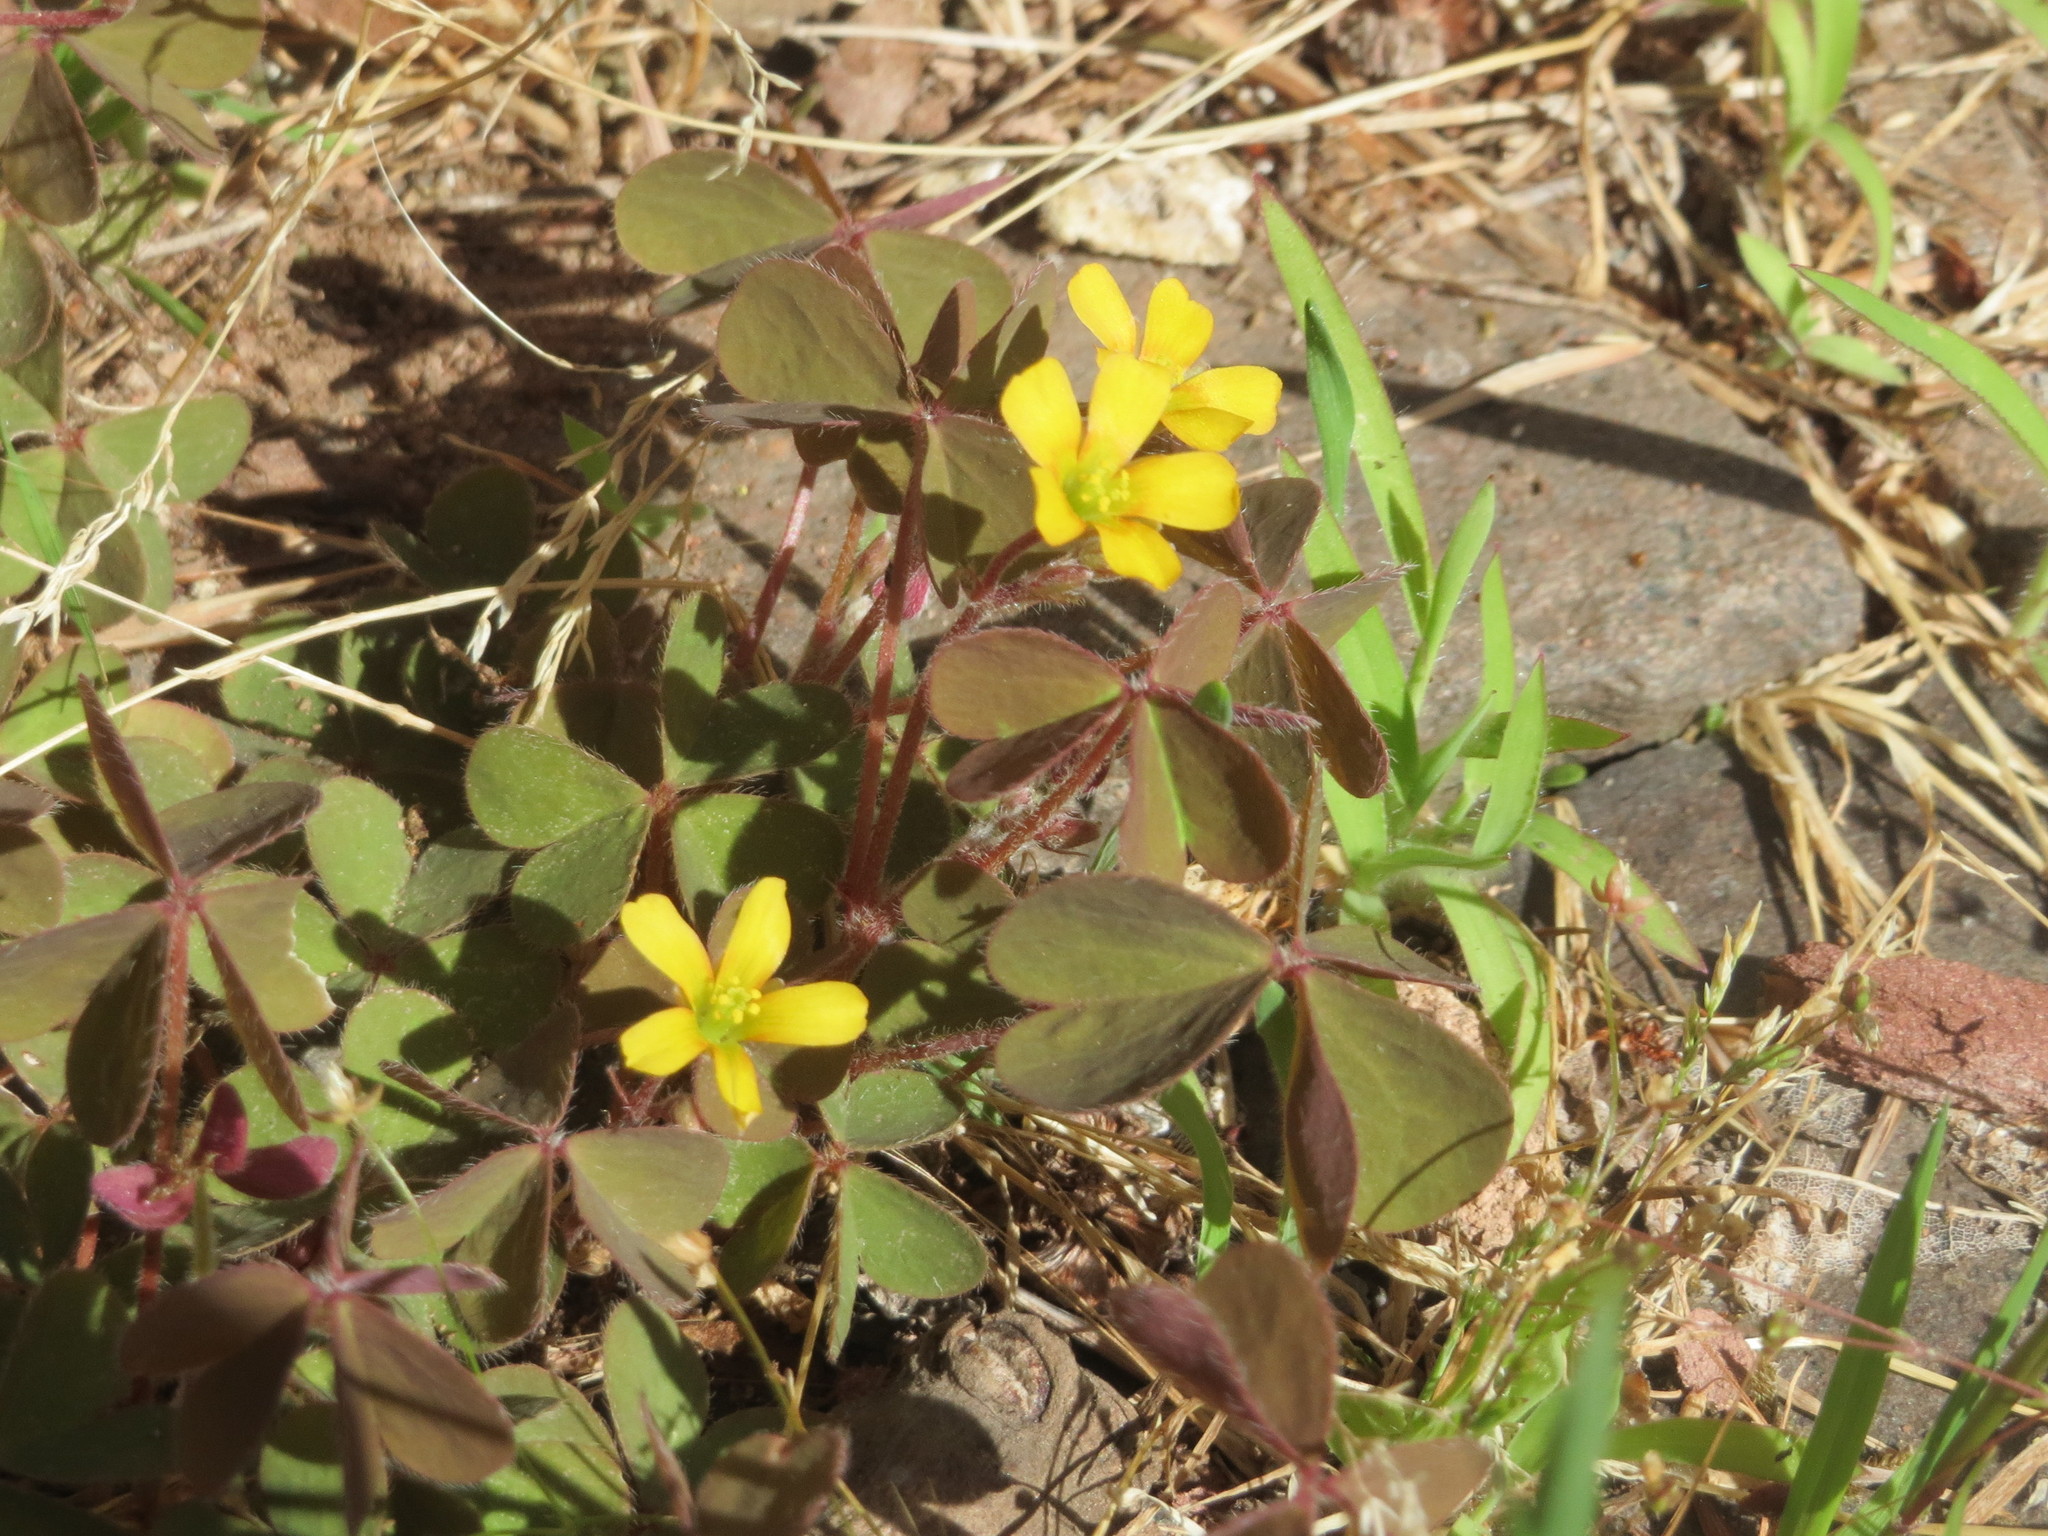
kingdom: Plantae
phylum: Tracheophyta
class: Magnoliopsida
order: Oxalidales
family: Oxalidaceae
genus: Oxalis
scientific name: Oxalis corniculata
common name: Procumbent yellow-sorrel
